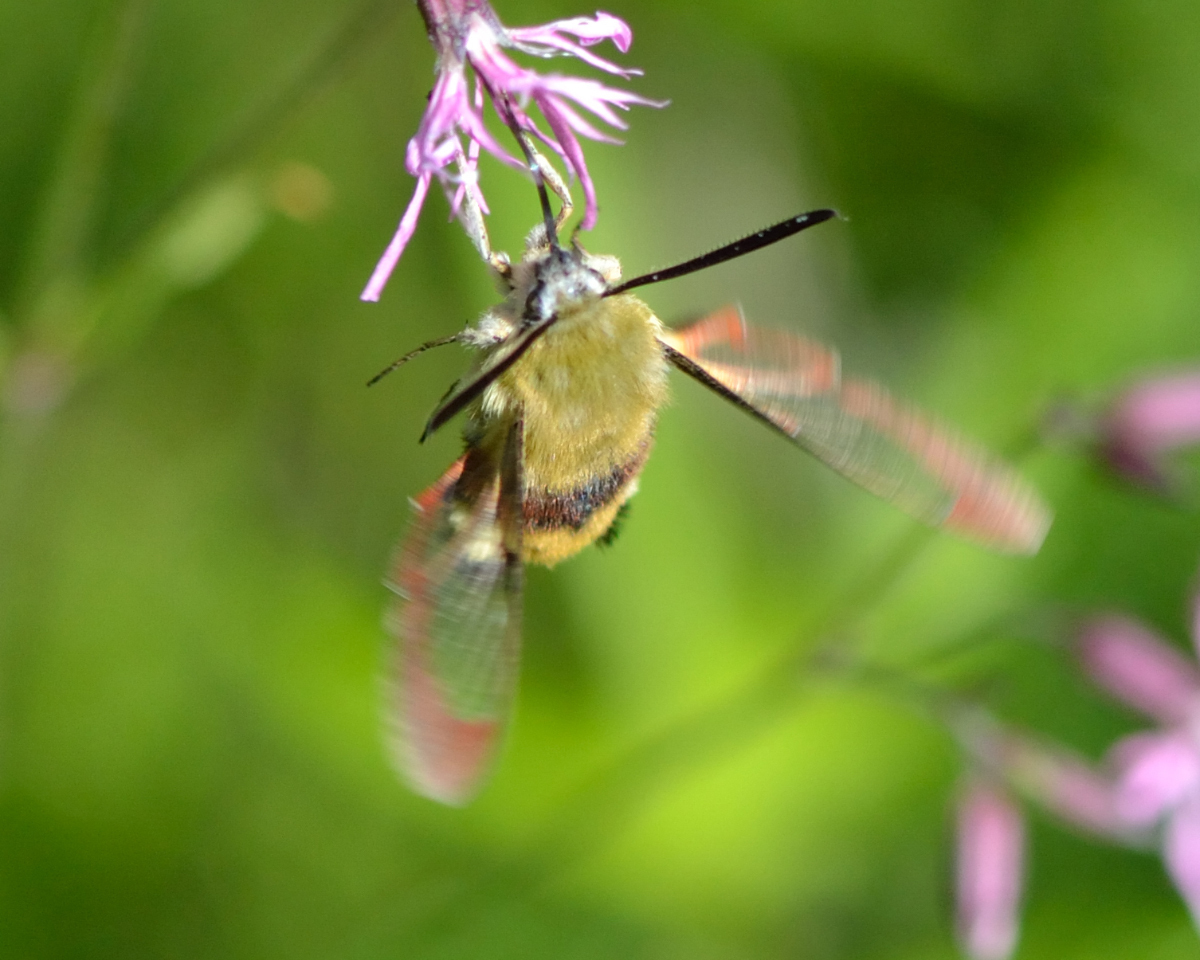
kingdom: Animalia
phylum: Arthropoda
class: Insecta
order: Lepidoptera
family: Sphingidae
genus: Hemaris
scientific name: Hemaris fuciformis
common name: Broad-bordered bee hawk-moth
